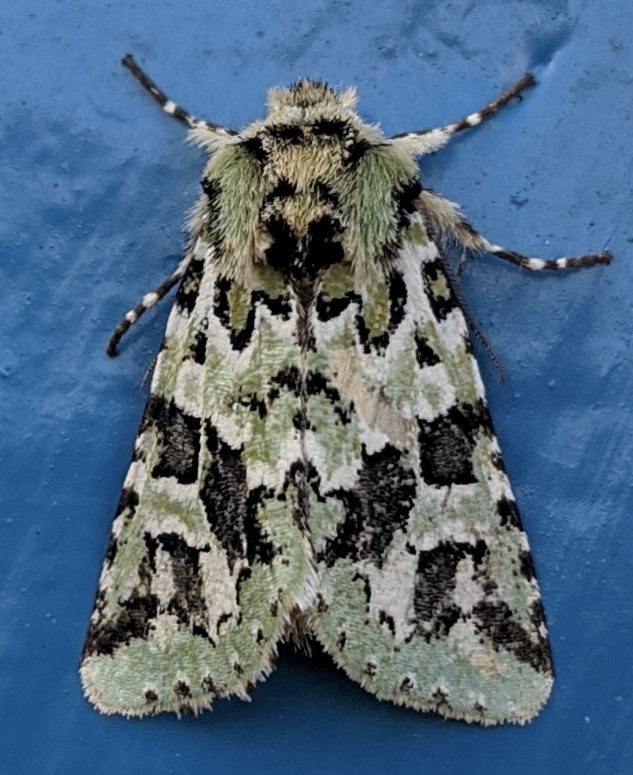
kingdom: Animalia
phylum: Arthropoda
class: Insecta
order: Lepidoptera
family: Noctuidae
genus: Feralia
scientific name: Feralia comstocki
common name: Comstock's sallow
